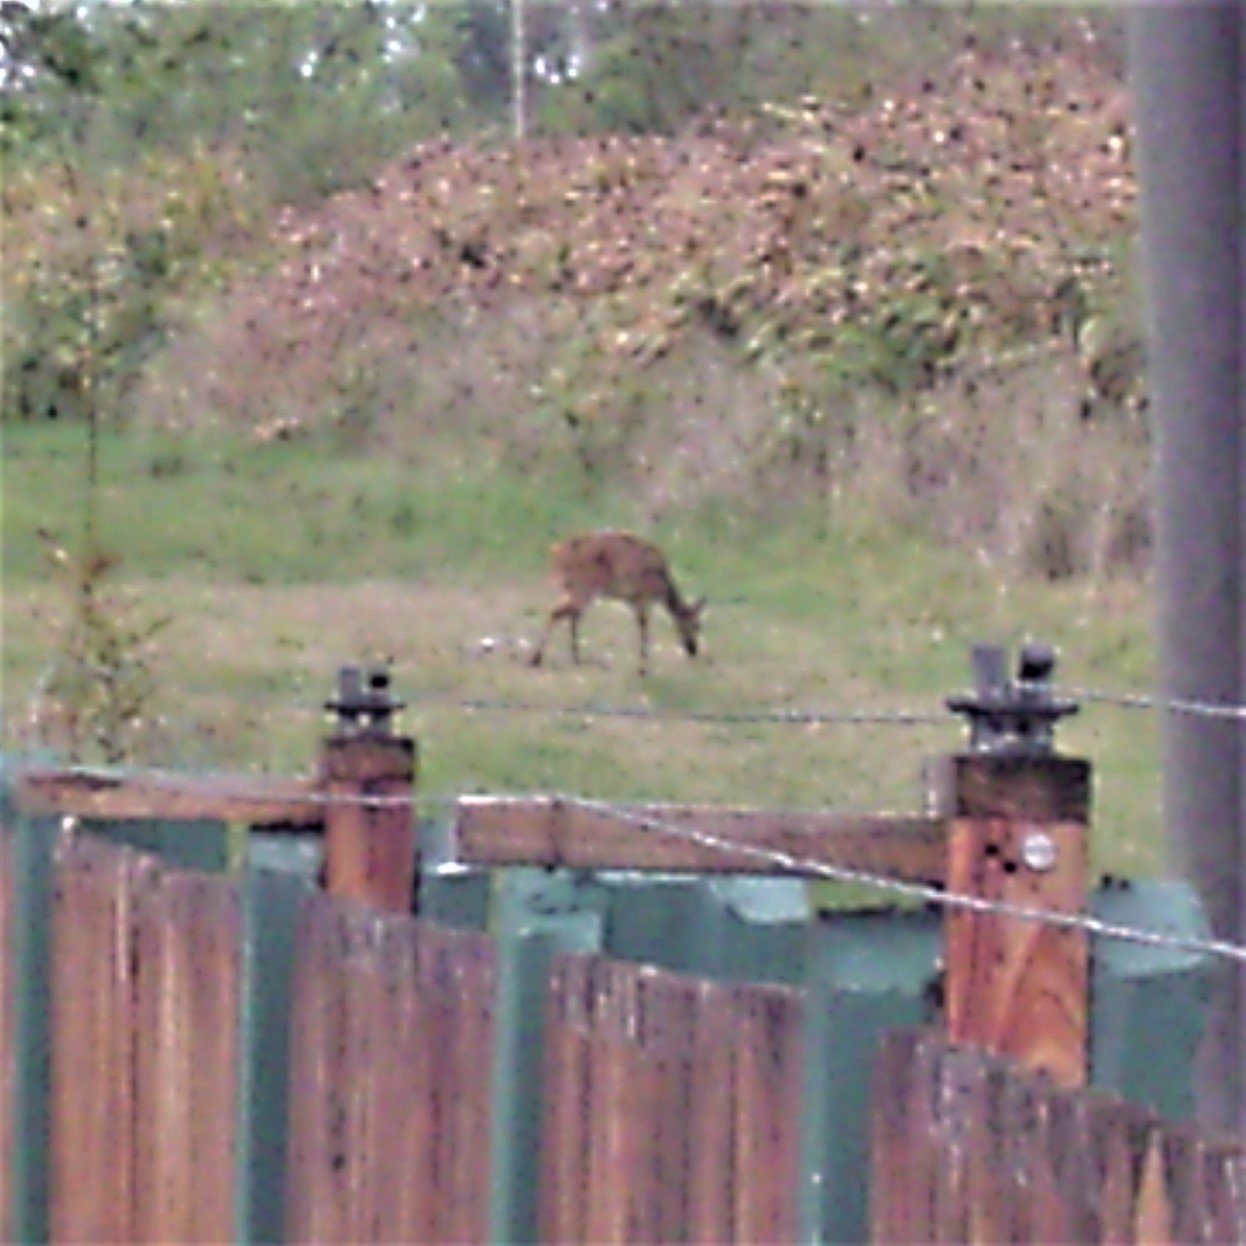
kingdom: Animalia
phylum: Chordata
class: Mammalia
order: Artiodactyla
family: Bovidae
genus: Tragelaphus
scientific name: Tragelaphus scriptus
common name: Bushbuck
